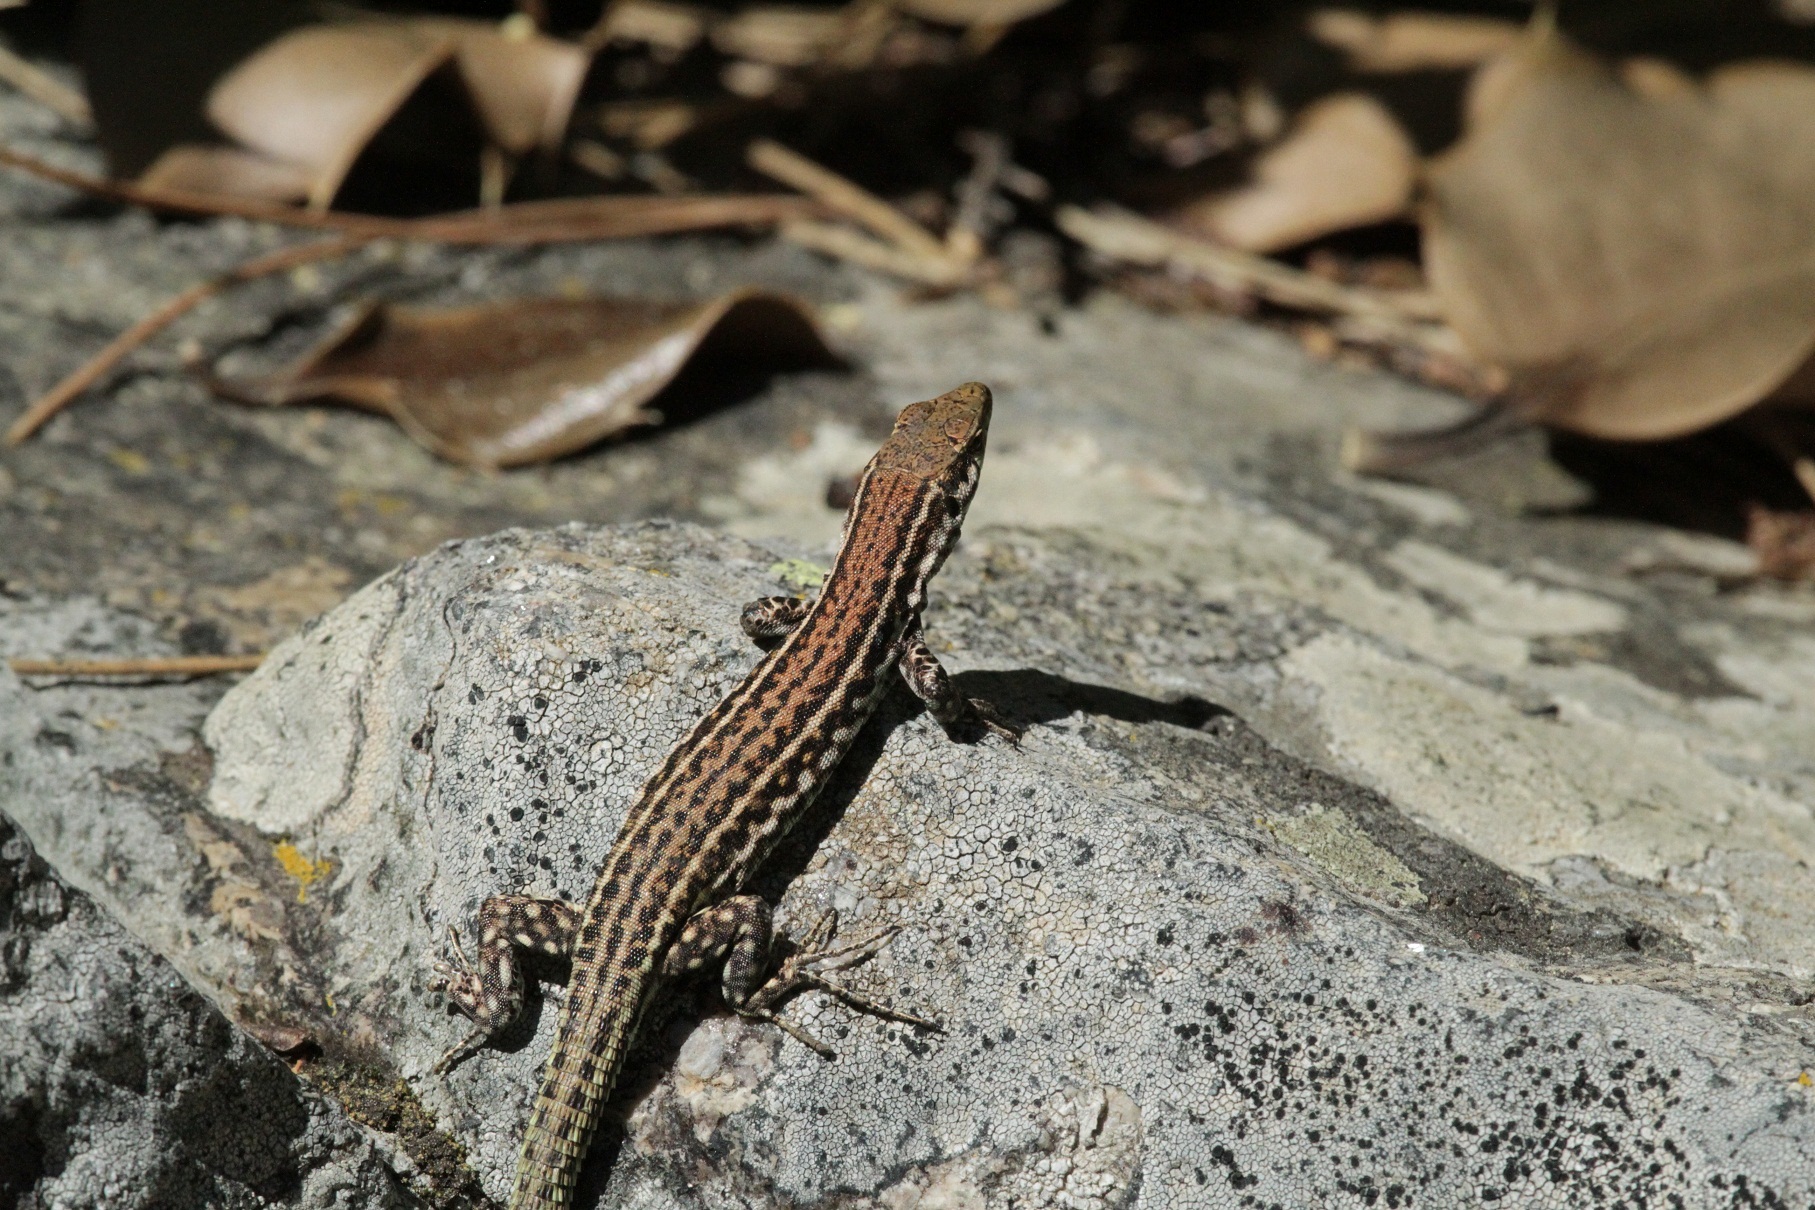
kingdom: Animalia
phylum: Chordata
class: Squamata
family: Lacertidae
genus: Podarcis
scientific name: Podarcis tiliguerta
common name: Tyrrhenian wall lizard
